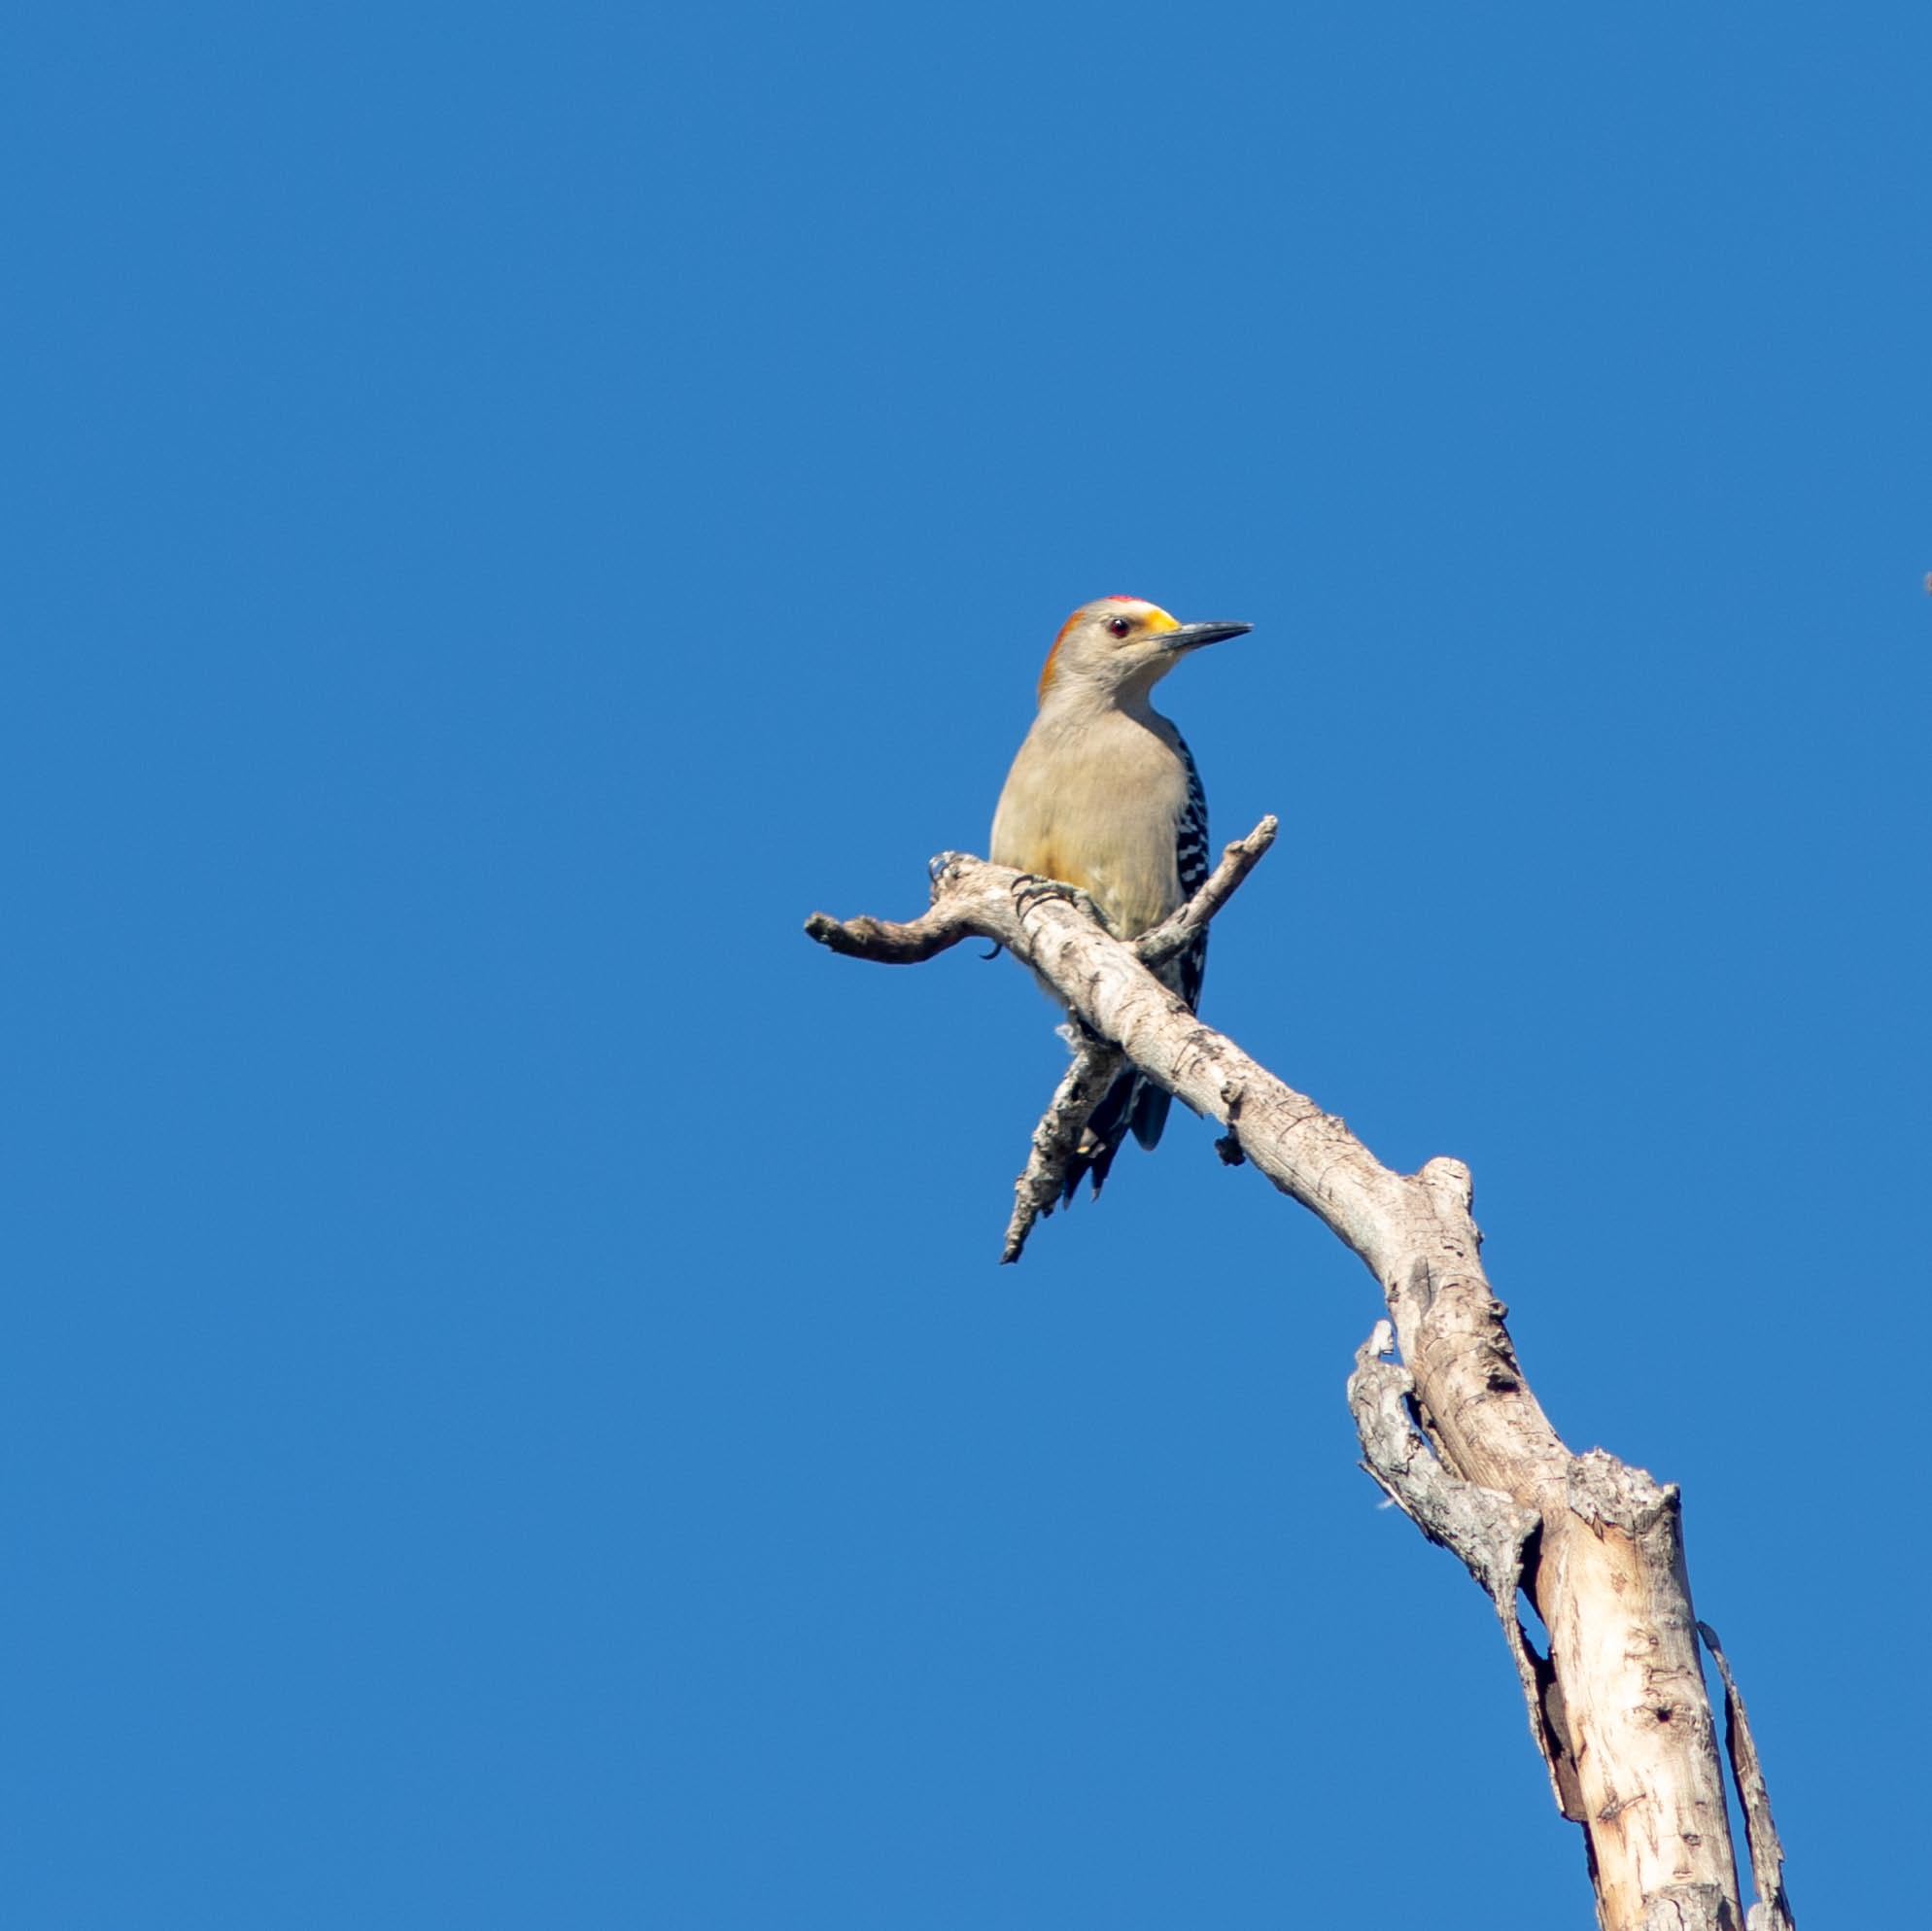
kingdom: Animalia
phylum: Chordata
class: Aves
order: Piciformes
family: Picidae
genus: Melanerpes
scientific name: Melanerpes aurifrons
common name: Golden-fronted woodpecker
